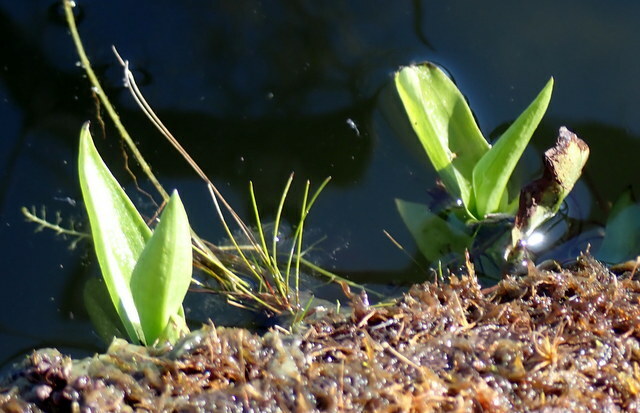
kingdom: Plantae
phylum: Tracheophyta
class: Liliopsida
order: Asparagales
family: Orchidaceae
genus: Habenaria
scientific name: Habenaria repens
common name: Water orchid
